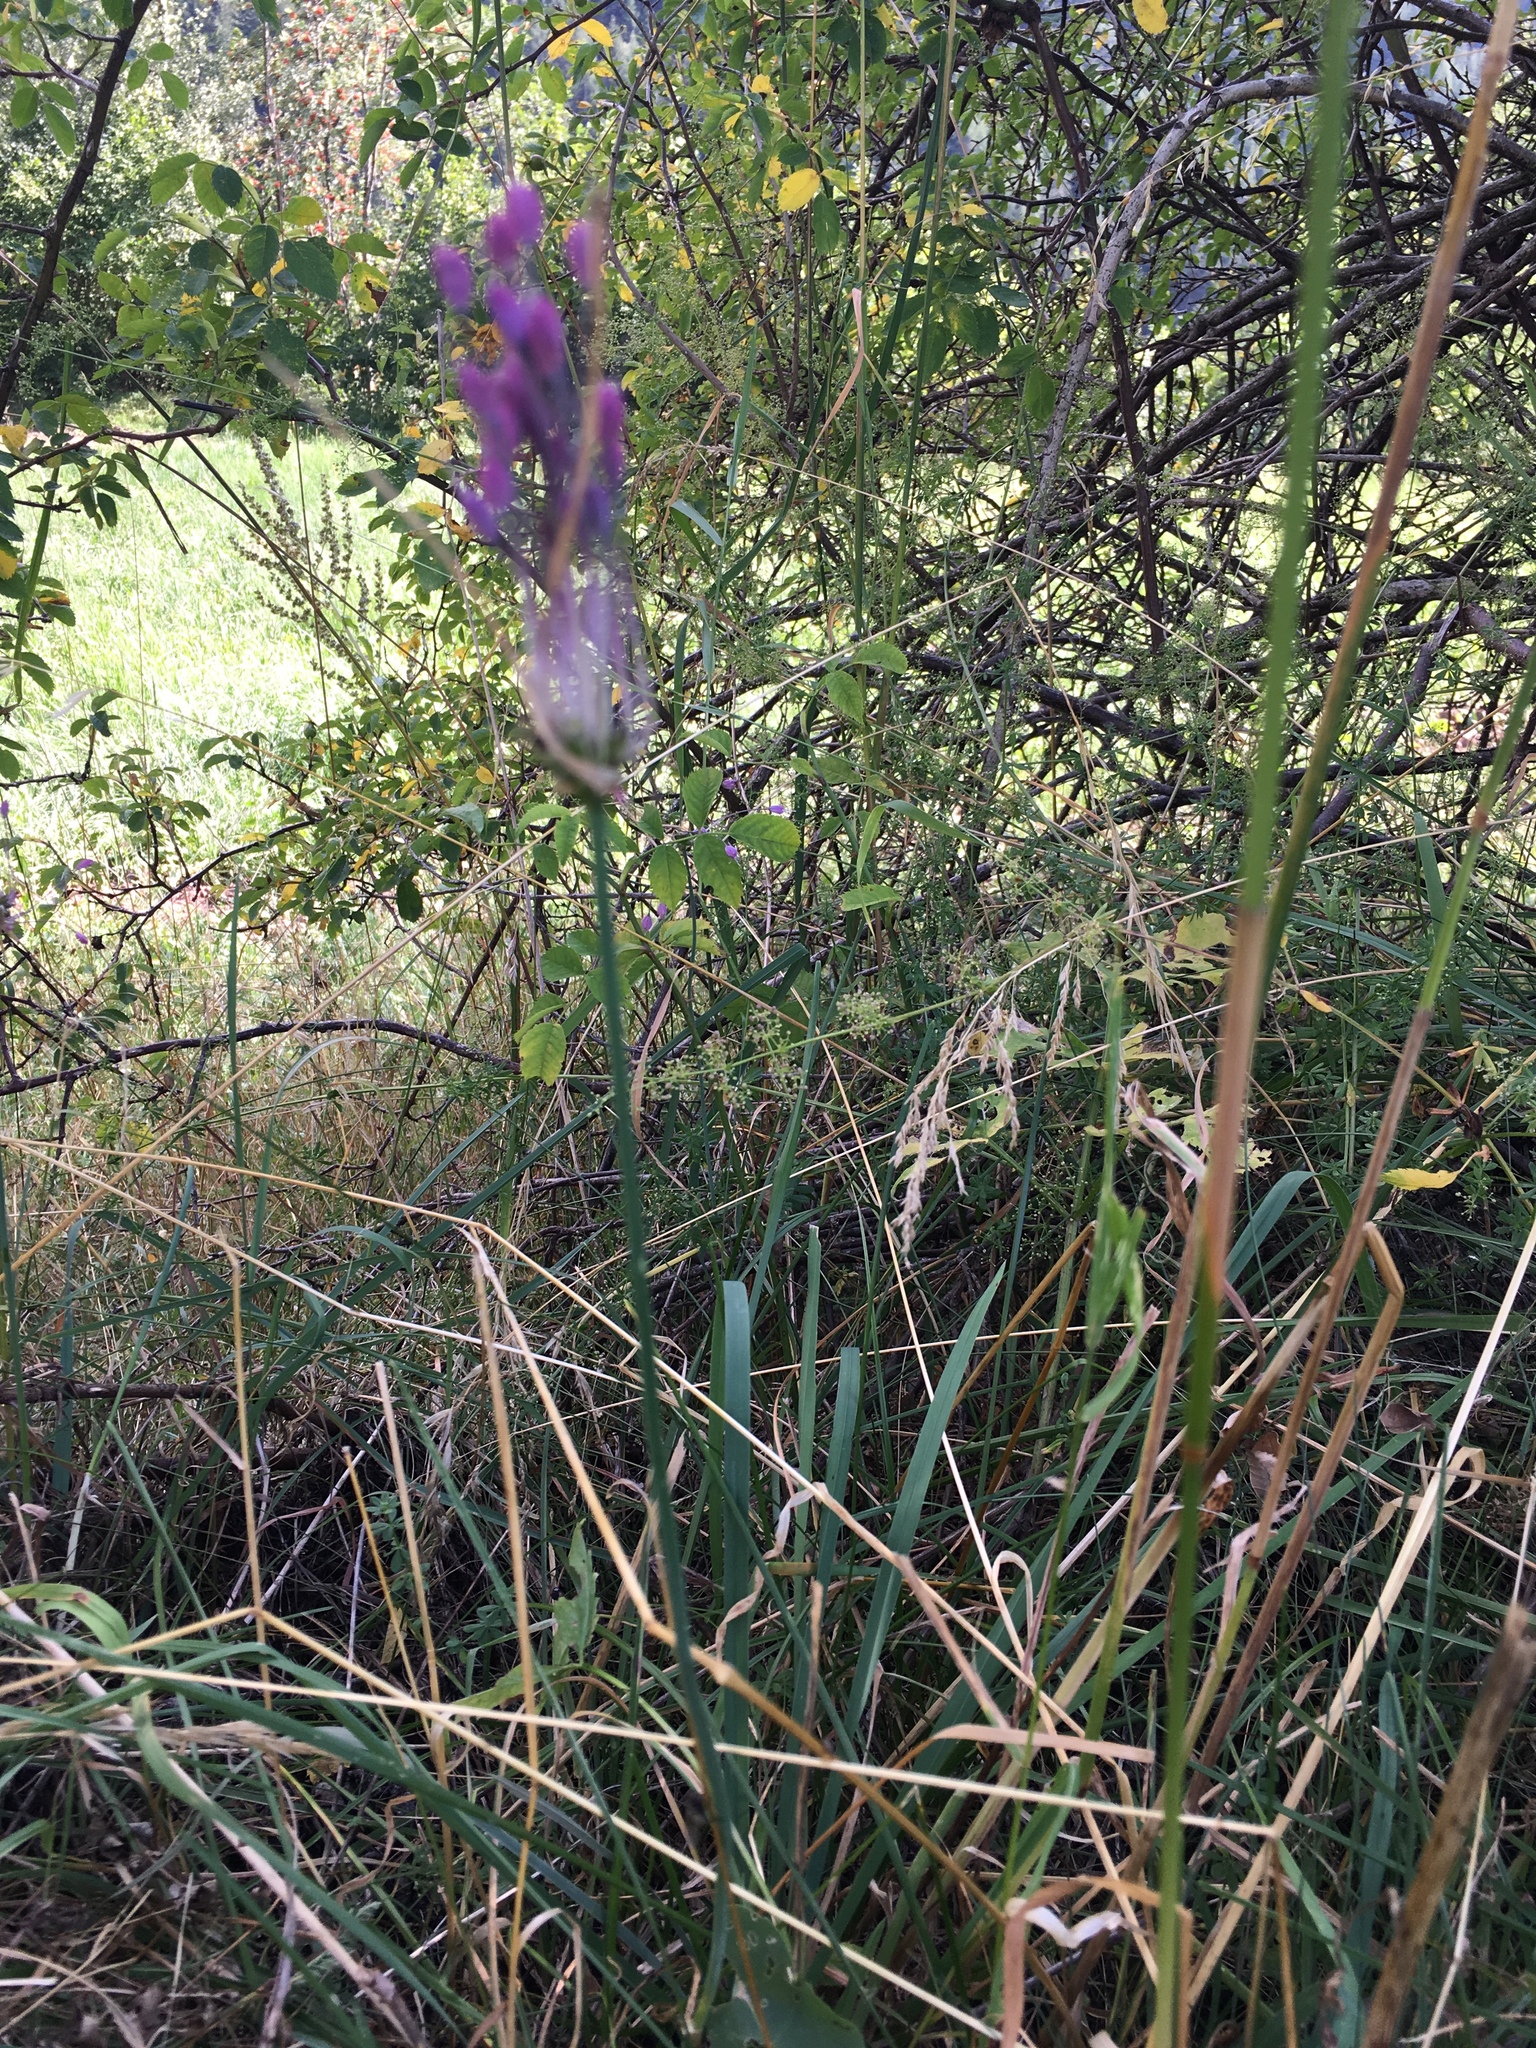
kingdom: Plantae
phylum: Tracheophyta
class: Liliopsida
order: Asparagales
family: Amaryllidaceae
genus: Allium
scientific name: Allium carinatum
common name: Keeled garlic
